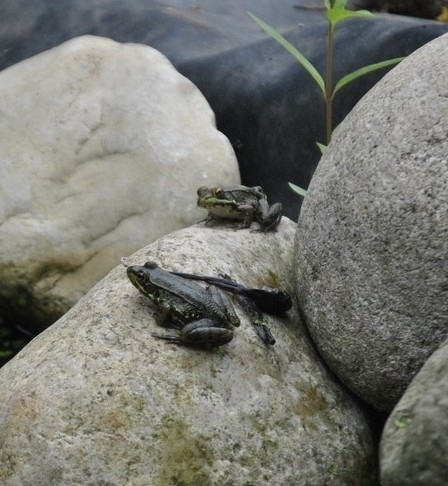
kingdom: Animalia
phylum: Chordata
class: Amphibia
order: Anura
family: Ranidae
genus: Lithobates
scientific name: Lithobates clamitans
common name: Green frog
